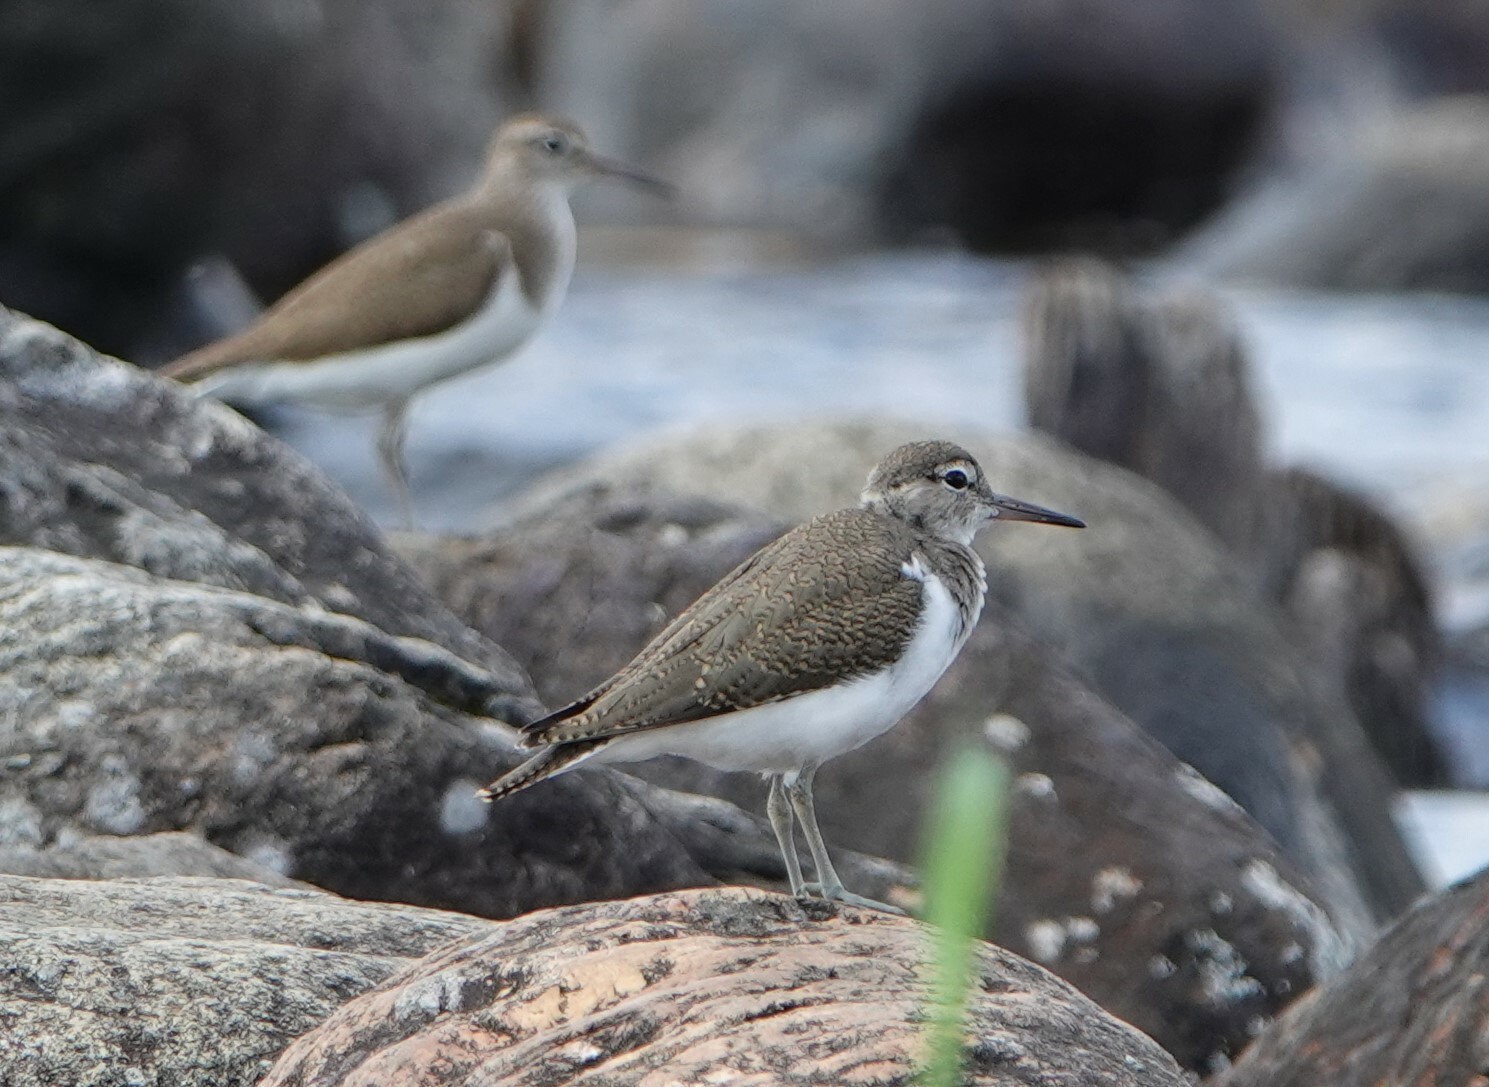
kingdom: Animalia
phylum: Chordata
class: Aves
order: Charadriiformes
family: Scolopacidae
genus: Actitis
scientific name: Actitis hypoleucos
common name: Common sandpiper
